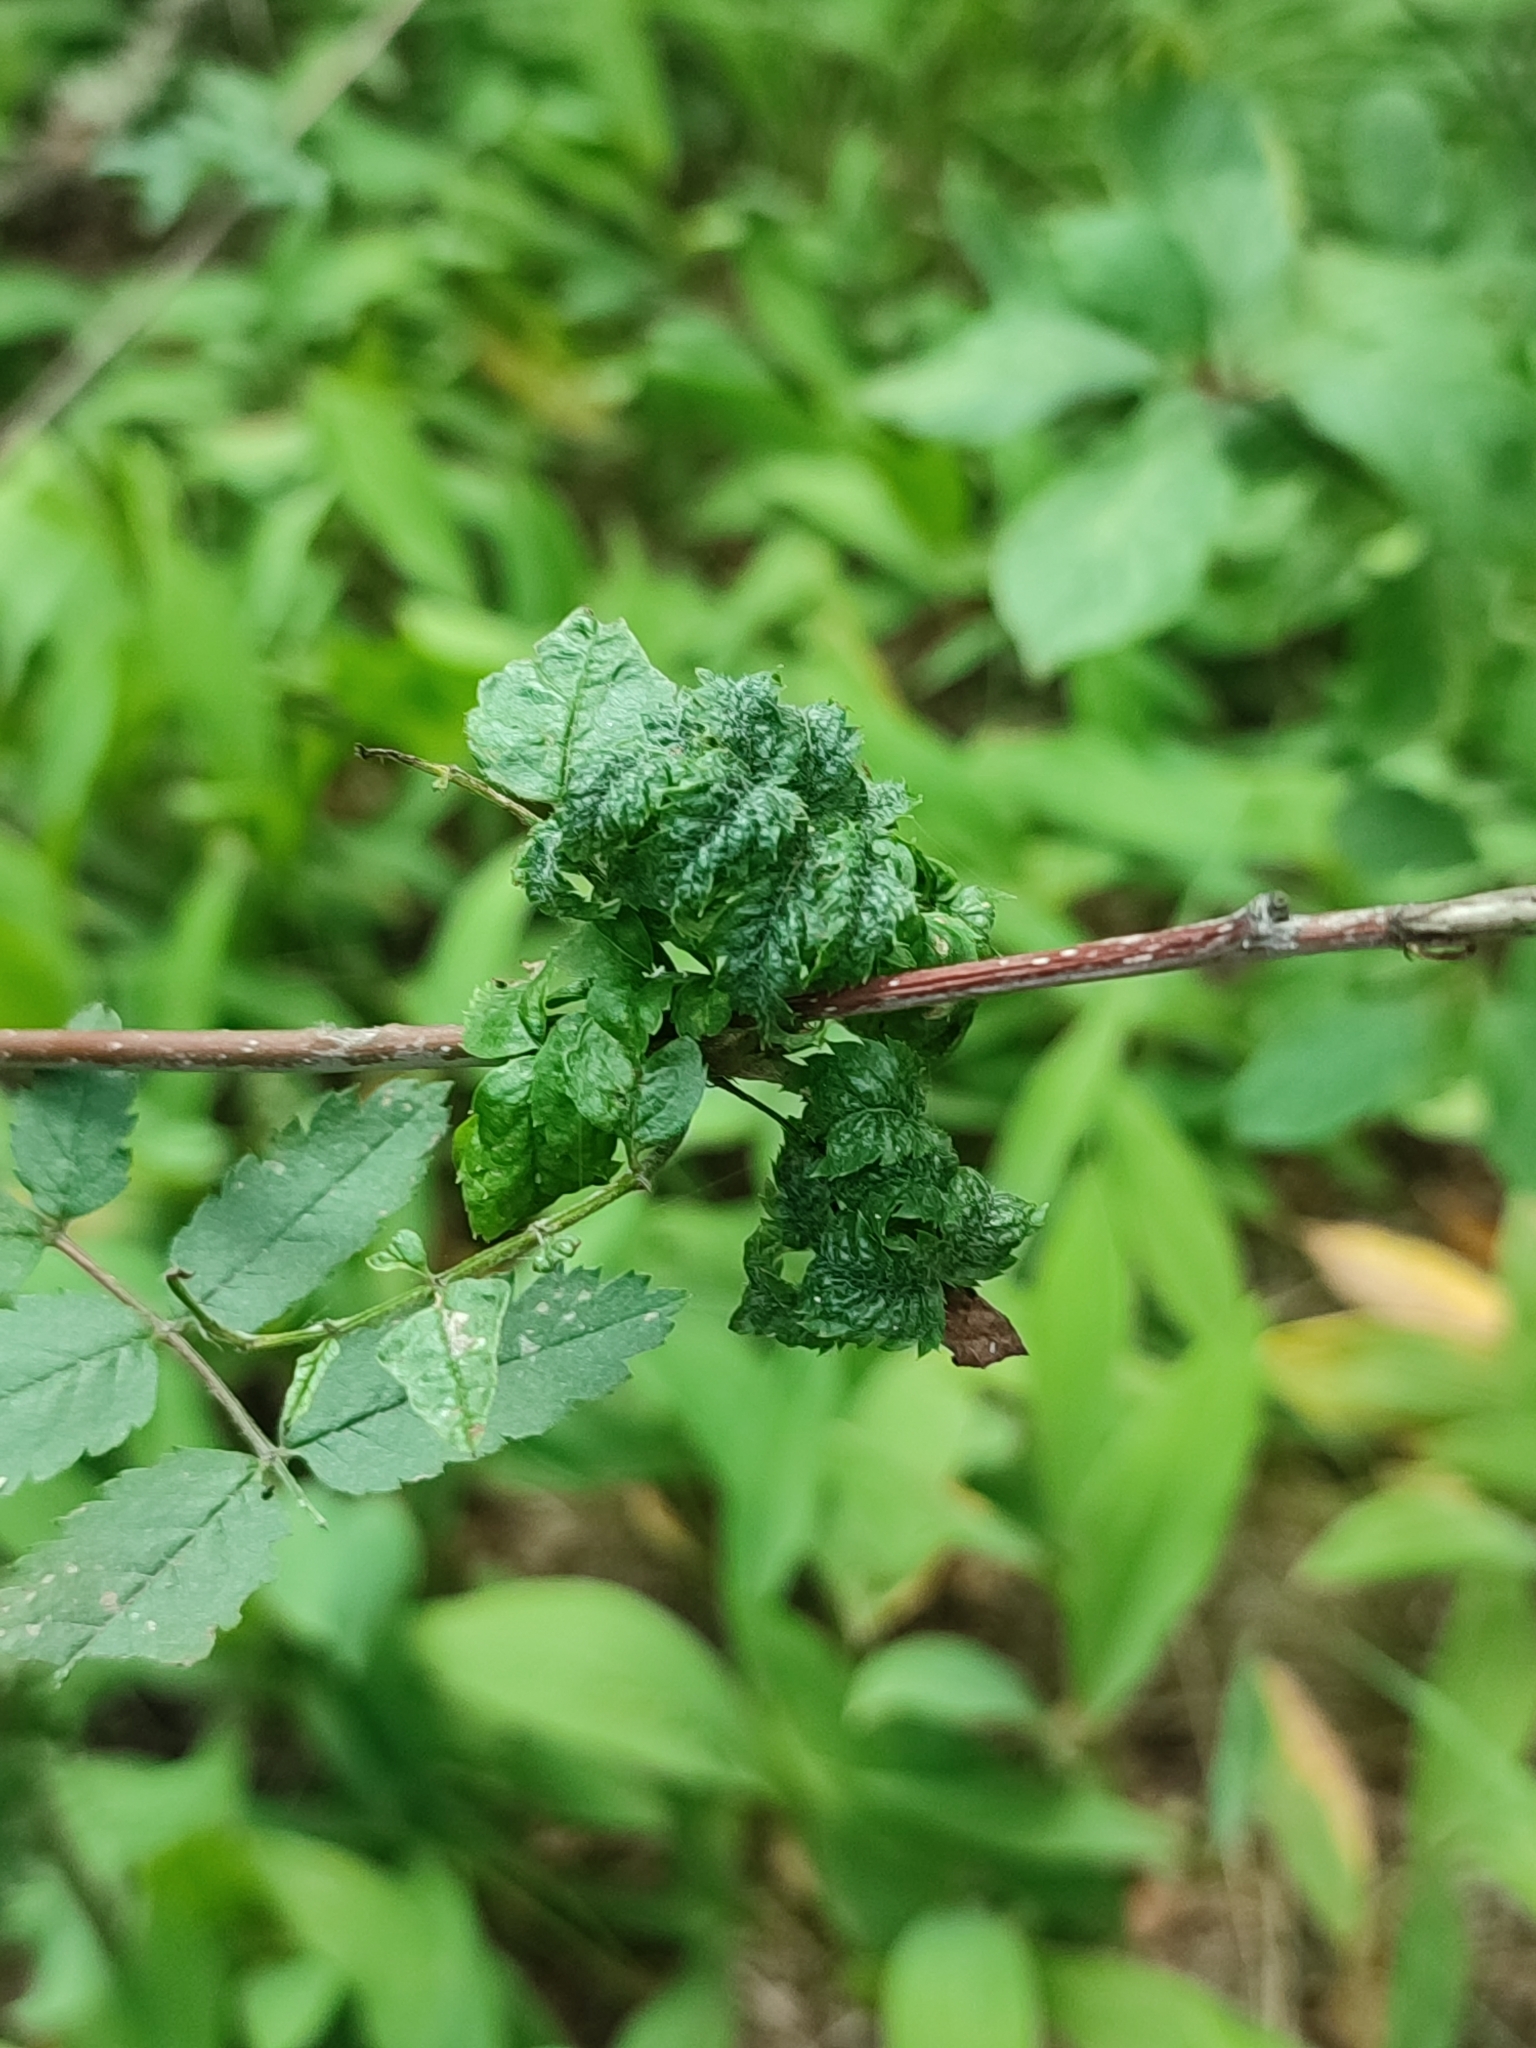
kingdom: Plantae
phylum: Tracheophyta
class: Magnoliopsida
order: Rosales
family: Rosaceae
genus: Sorbus
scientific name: Sorbus aucuparia
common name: Rowan
